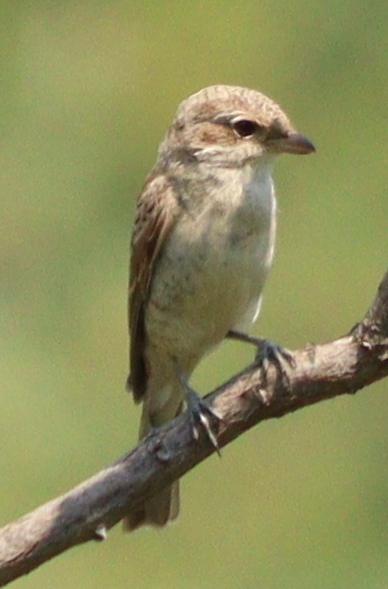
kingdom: Animalia
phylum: Chordata
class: Aves
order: Passeriformes
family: Laniidae
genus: Lanius
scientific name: Lanius collurio
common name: Red-backed shrike
